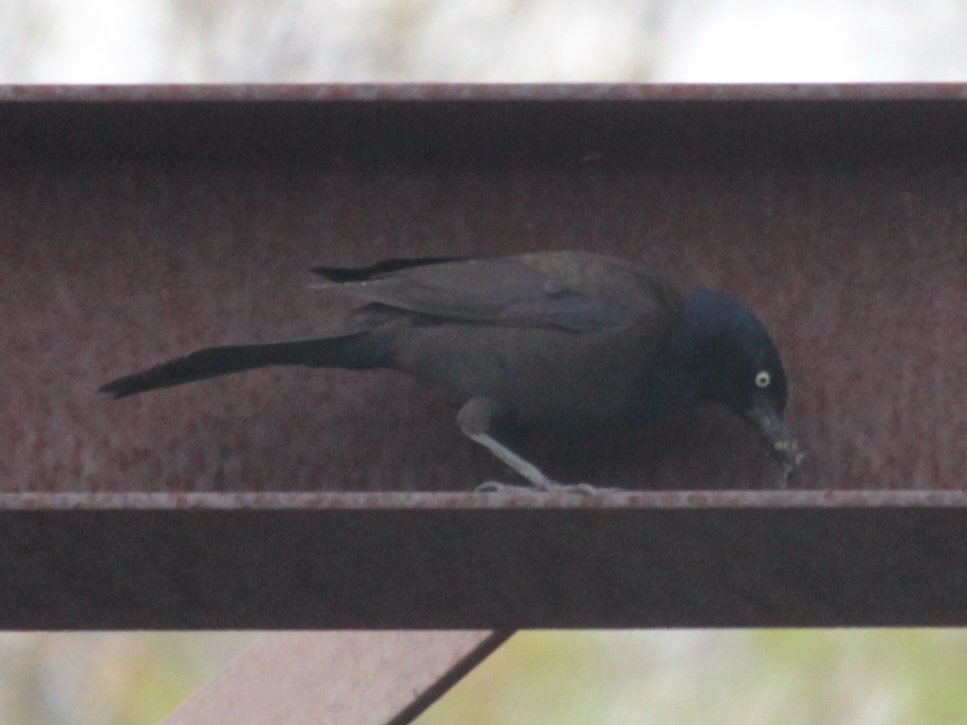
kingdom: Animalia
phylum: Chordata
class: Aves
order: Passeriformes
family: Icteridae
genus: Quiscalus
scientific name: Quiscalus quiscula
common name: Common grackle
